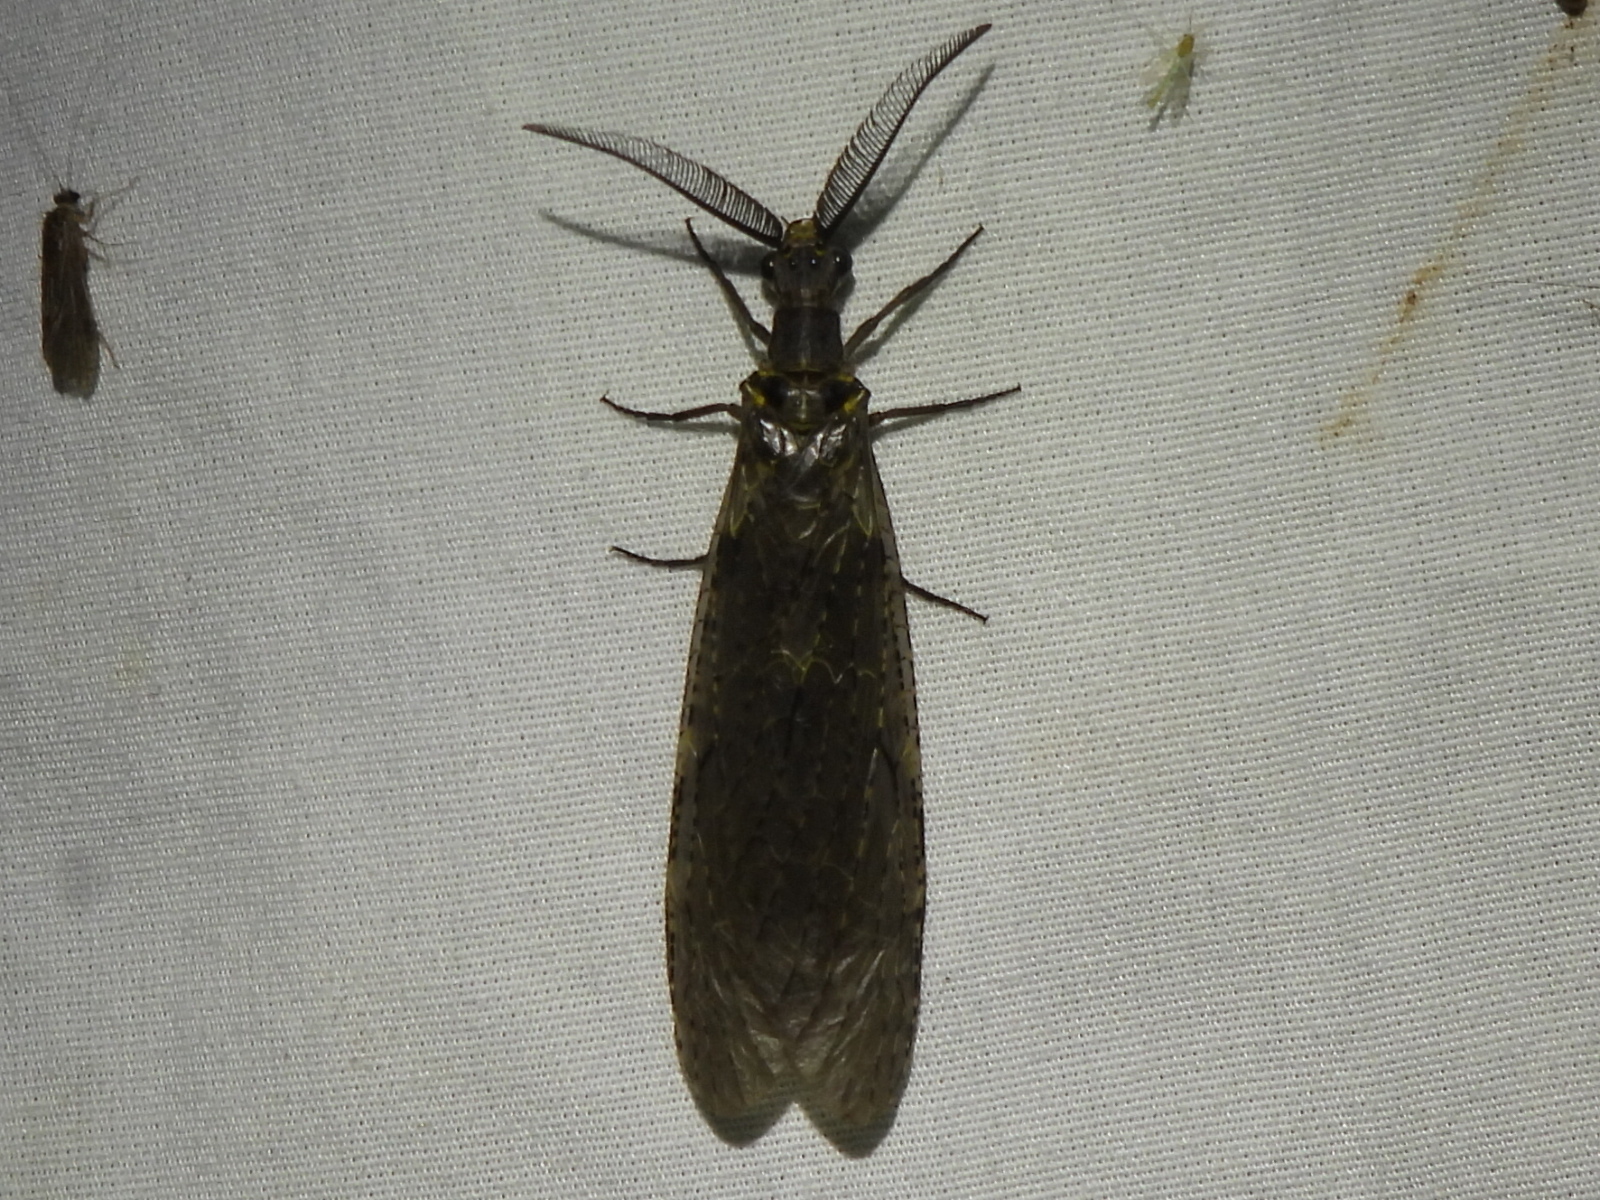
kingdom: Animalia
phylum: Arthropoda
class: Insecta
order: Megaloptera
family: Corydalidae
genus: Chauliodes
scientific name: Chauliodes rastricornis
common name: Spring fishfly
